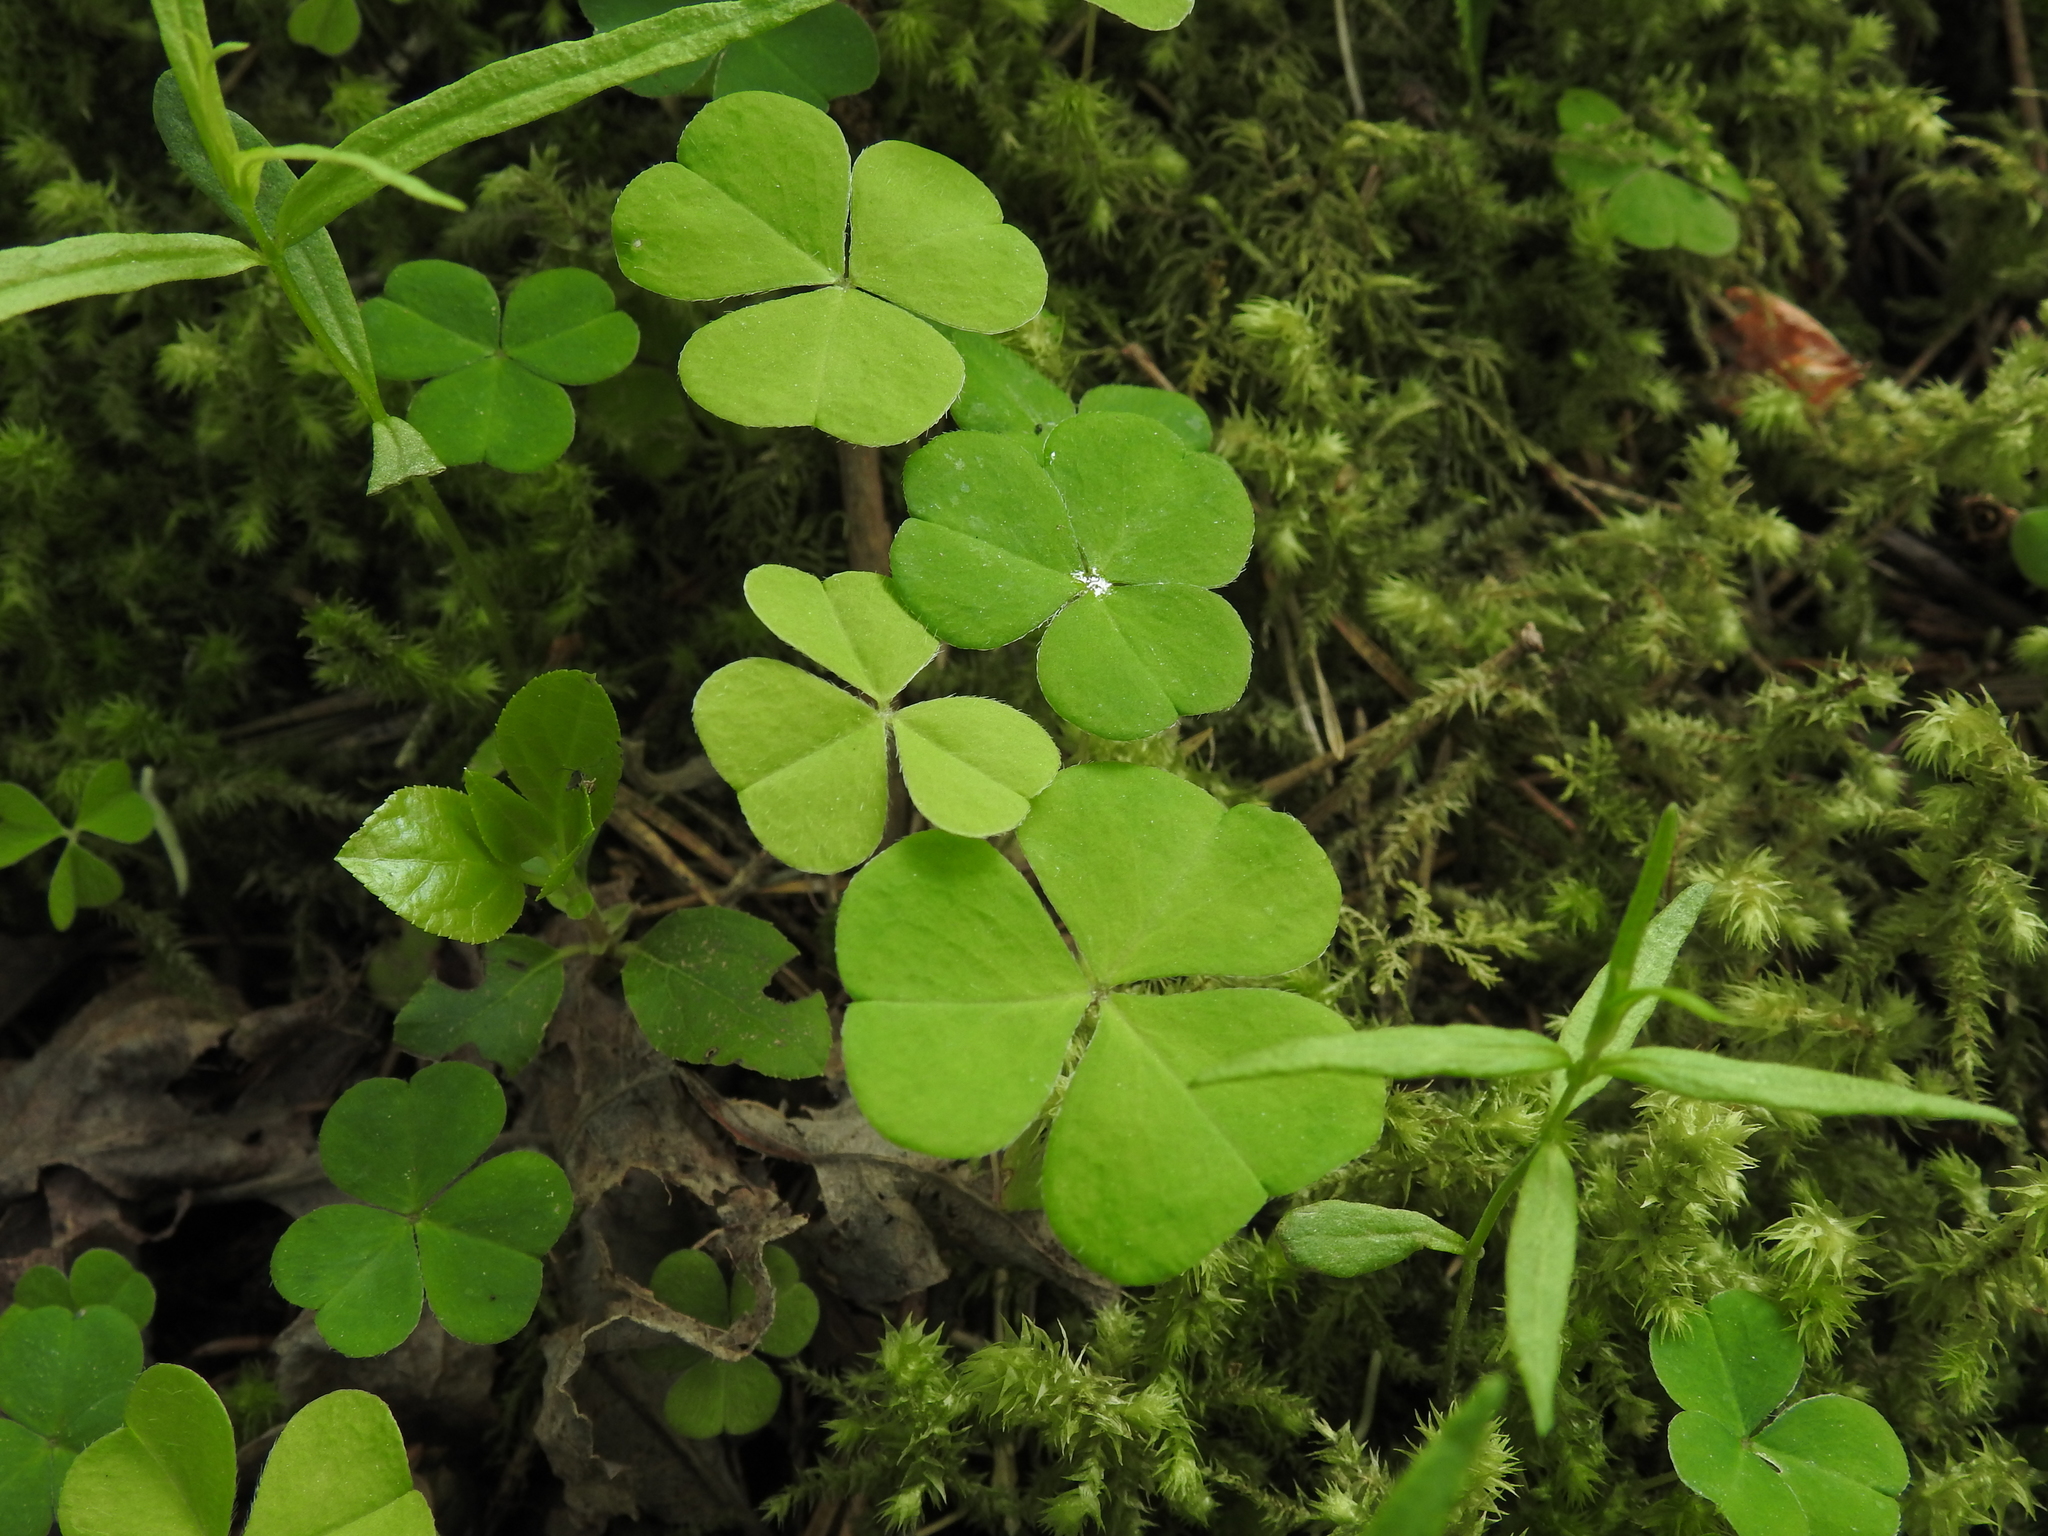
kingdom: Plantae
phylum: Tracheophyta
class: Magnoliopsida
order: Oxalidales
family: Oxalidaceae
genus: Oxalis
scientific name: Oxalis acetosella
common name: Wood-sorrel
